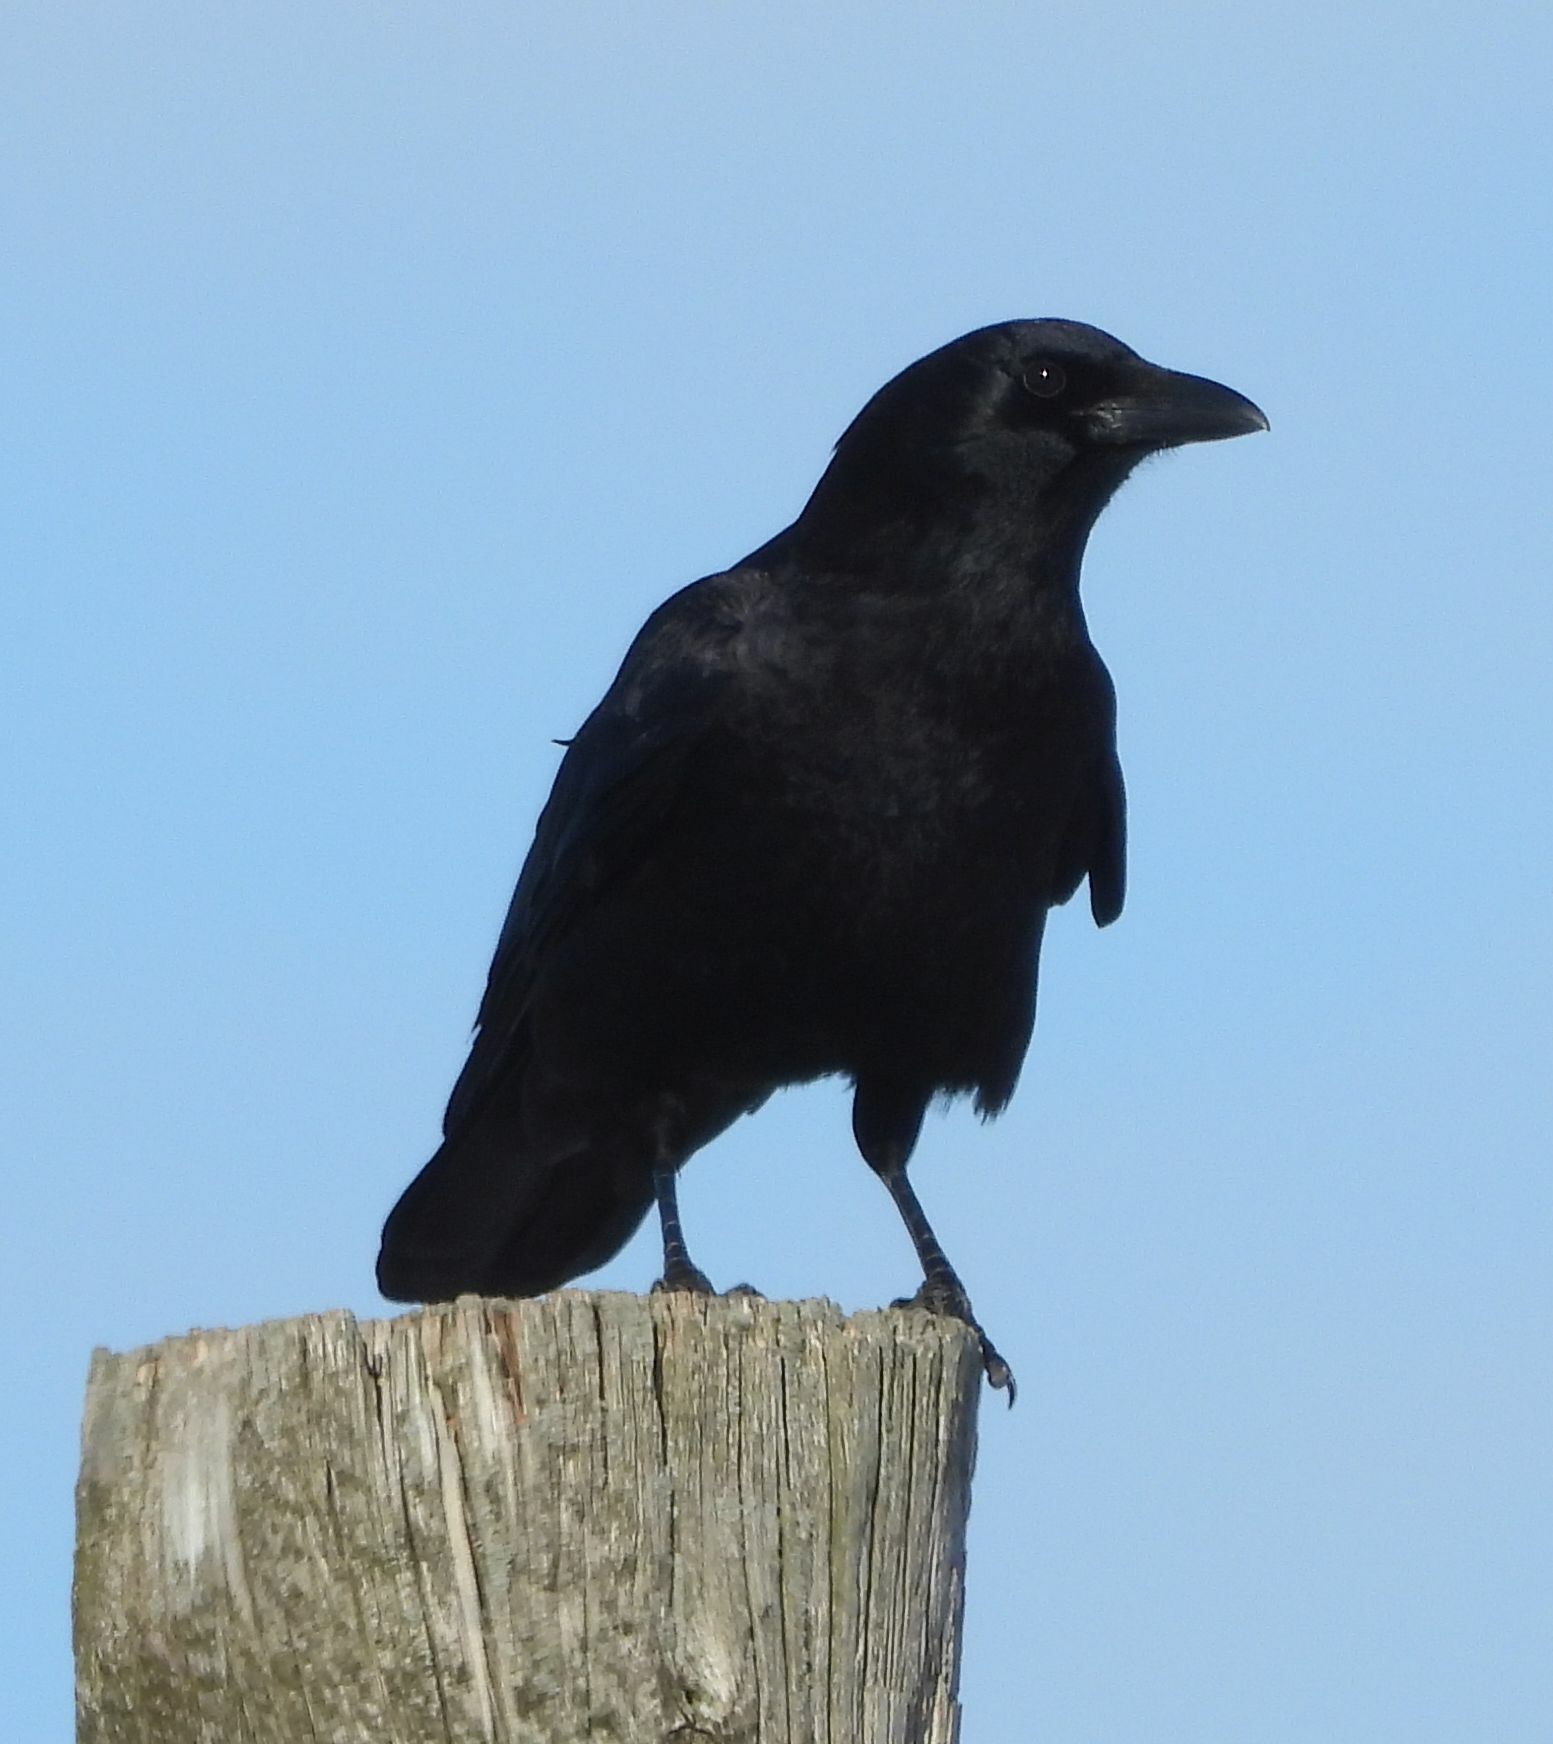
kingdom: Animalia
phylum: Chordata
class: Aves
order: Passeriformes
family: Corvidae
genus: Corvus
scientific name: Corvus brachyrhynchos
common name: American crow
